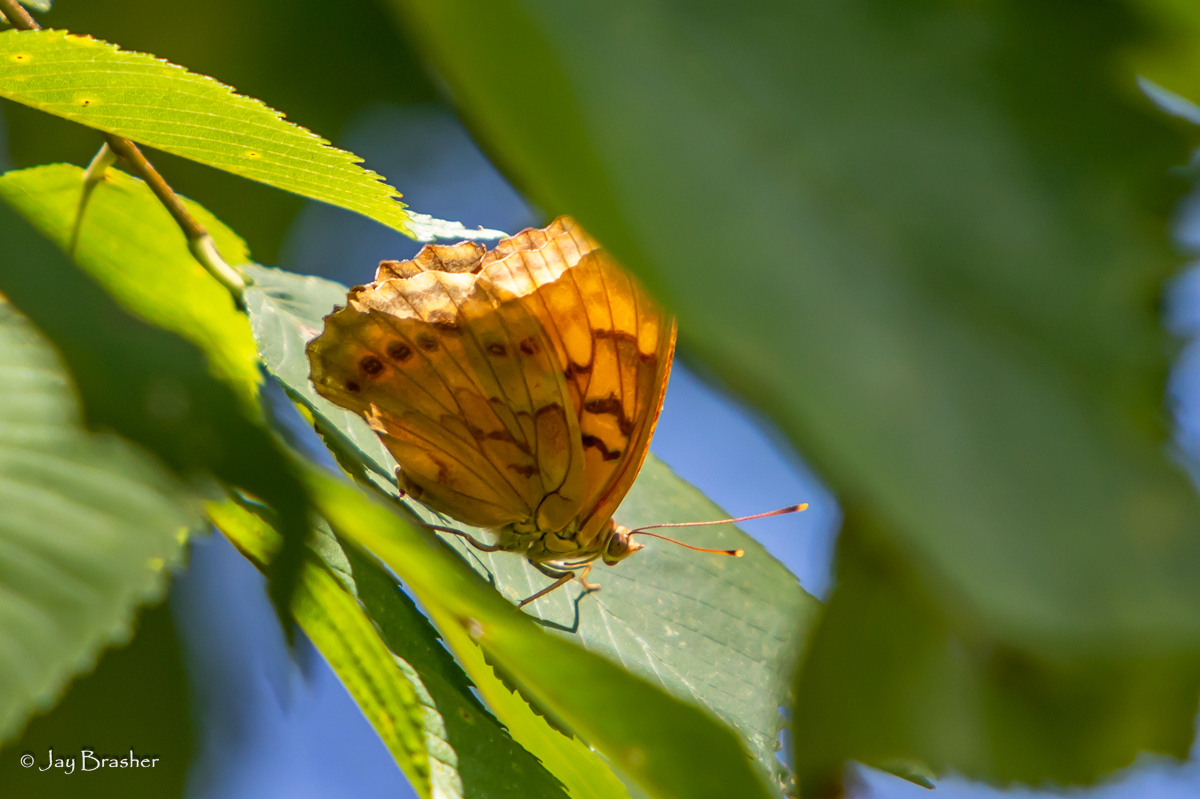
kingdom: Animalia
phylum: Arthropoda
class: Insecta
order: Lepidoptera
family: Nymphalidae
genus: Asterocampa
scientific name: Asterocampa clyton
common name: Tawny emperor
